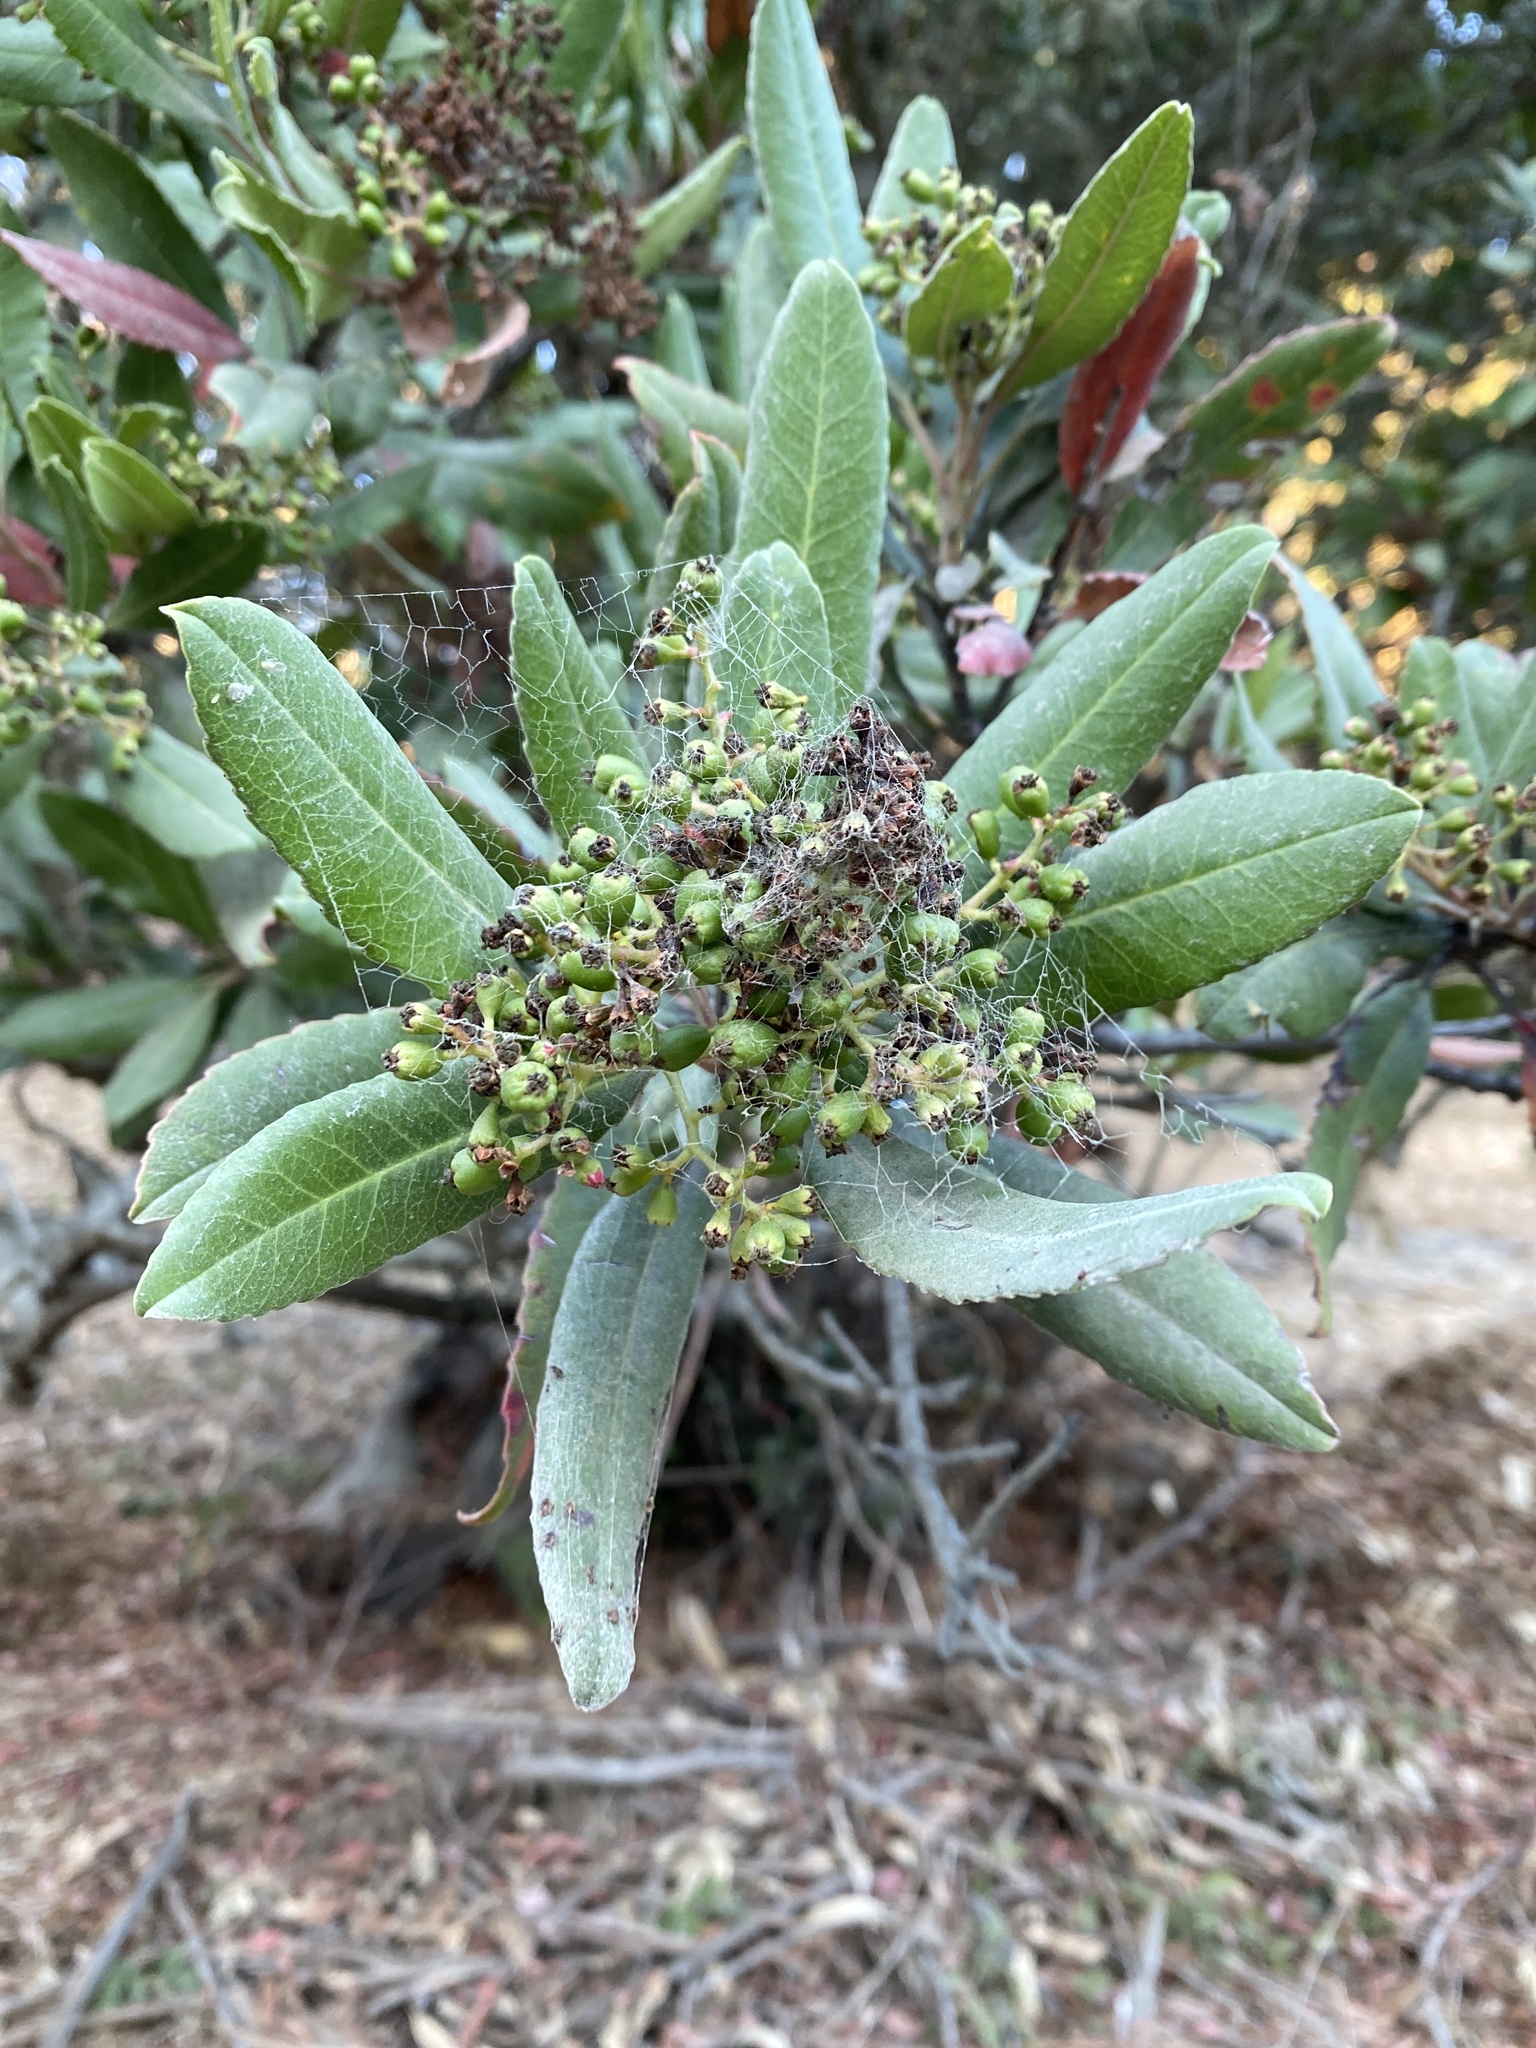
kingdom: Plantae
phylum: Tracheophyta
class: Magnoliopsida
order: Rosales
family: Rosaceae
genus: Heteromeles
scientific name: Heteromeles arbutifolia
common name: California-holly
